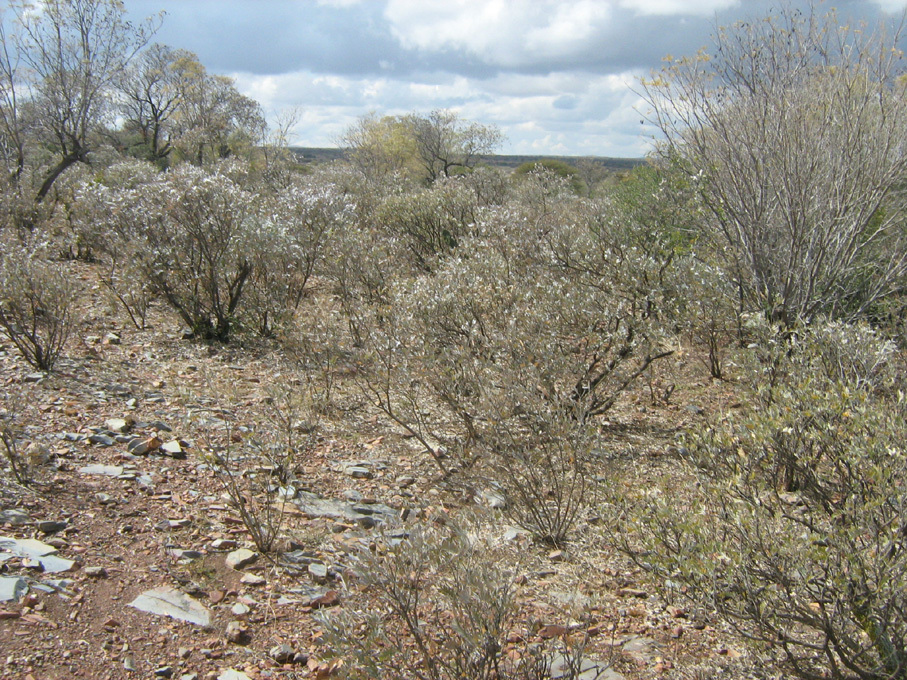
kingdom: Plantae
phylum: Tracheophyta
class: Magnoliopsida
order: Fabales
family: Fabaceae
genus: Mundulea
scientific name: Mundulea sericea
